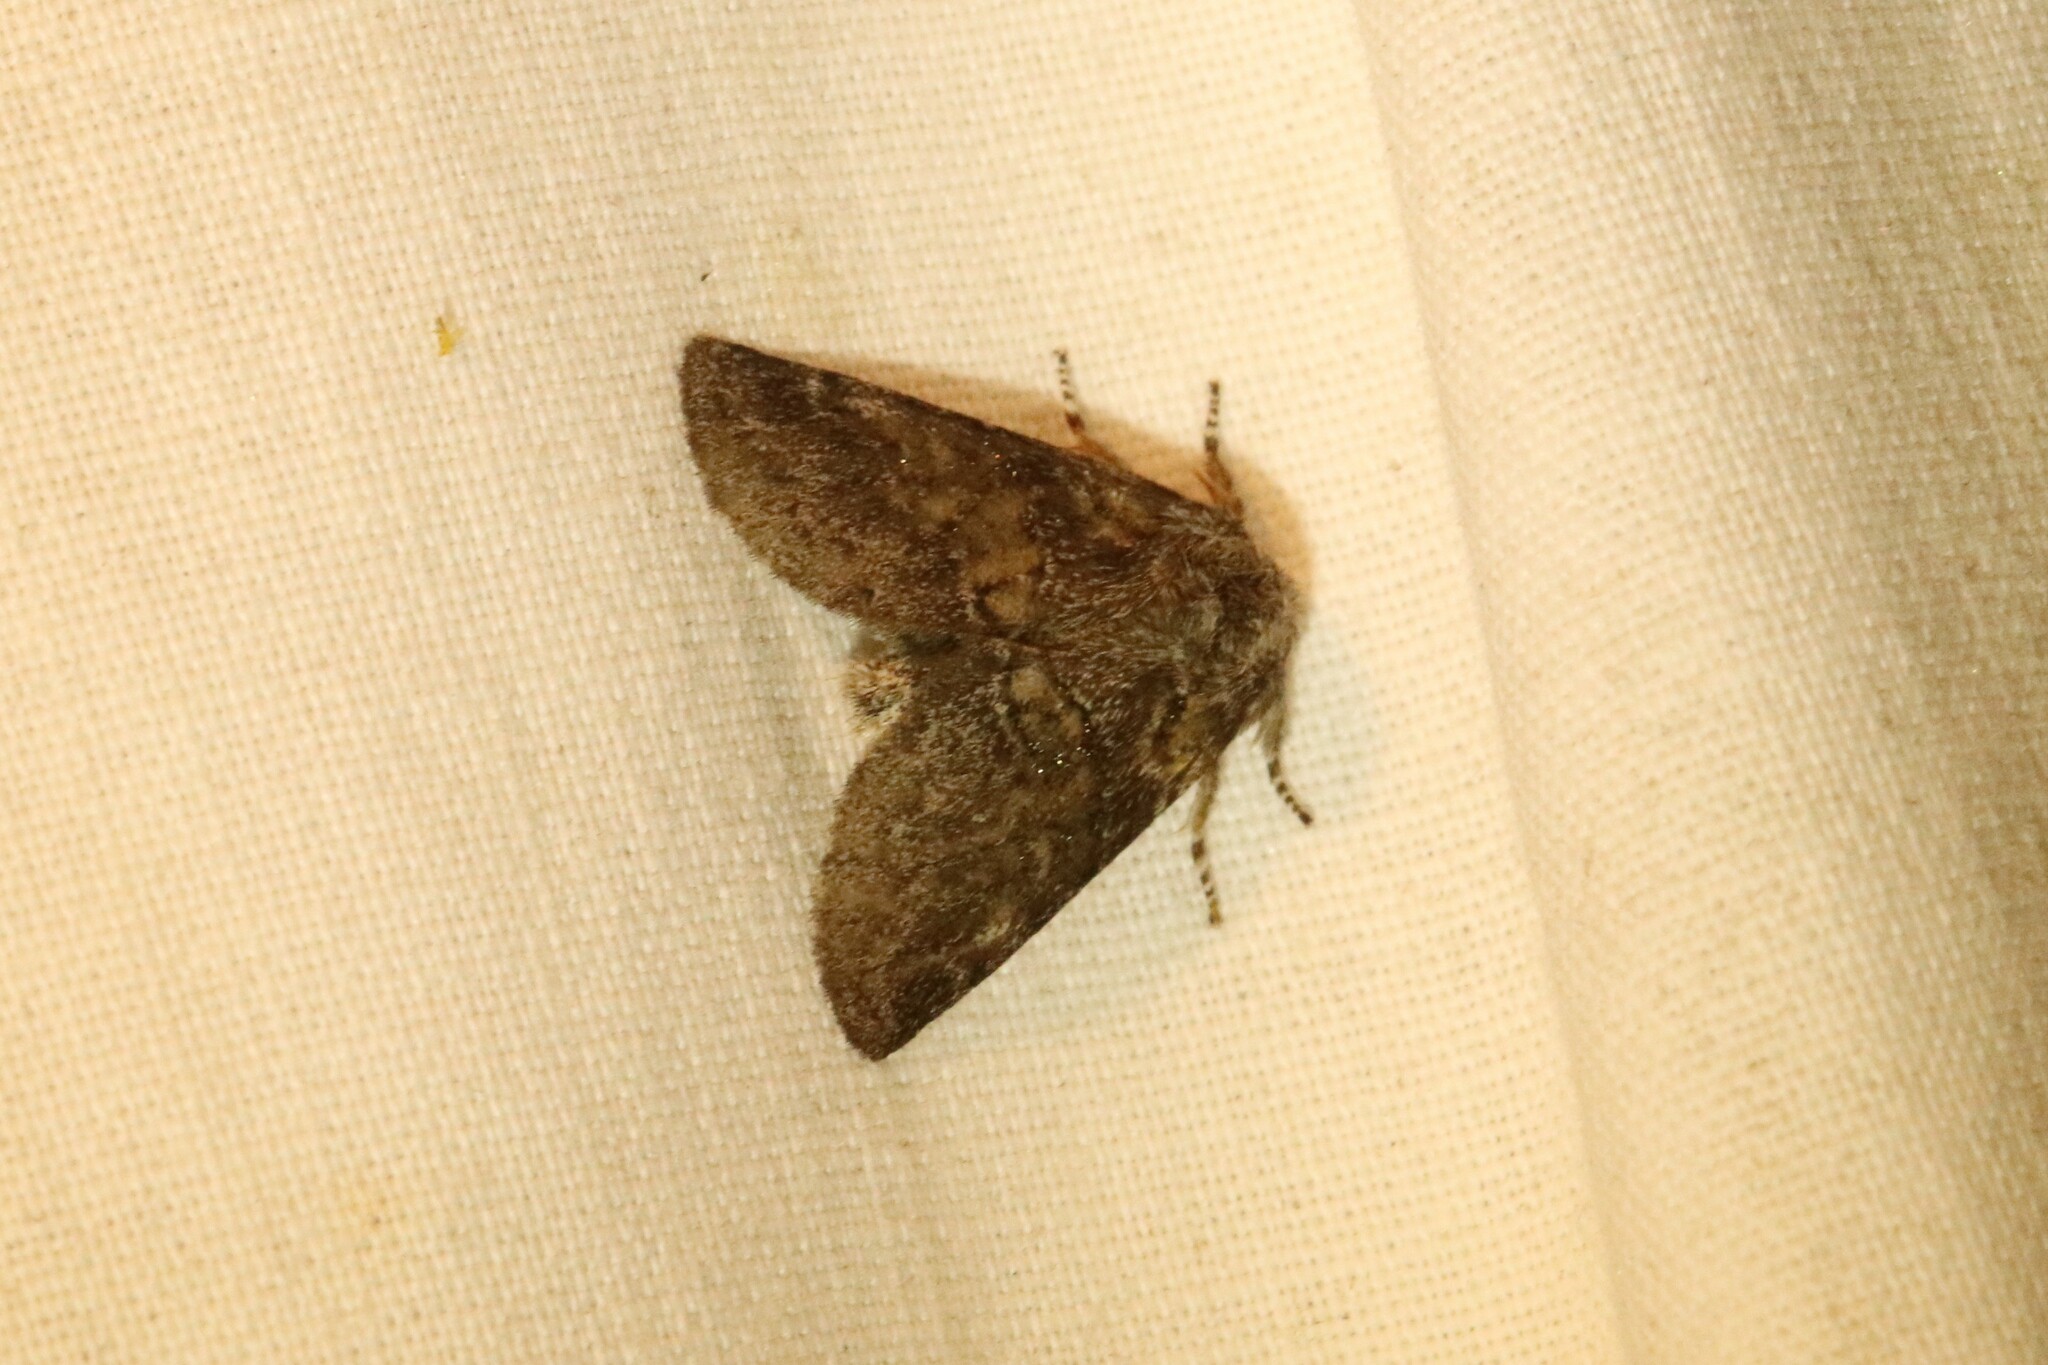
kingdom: Animalia
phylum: Arthropoda
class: Insecta
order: Lepidoptera
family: Notodontidae
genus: Gluphisia
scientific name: Gluphisia septentrionis
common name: Common gluphisia
